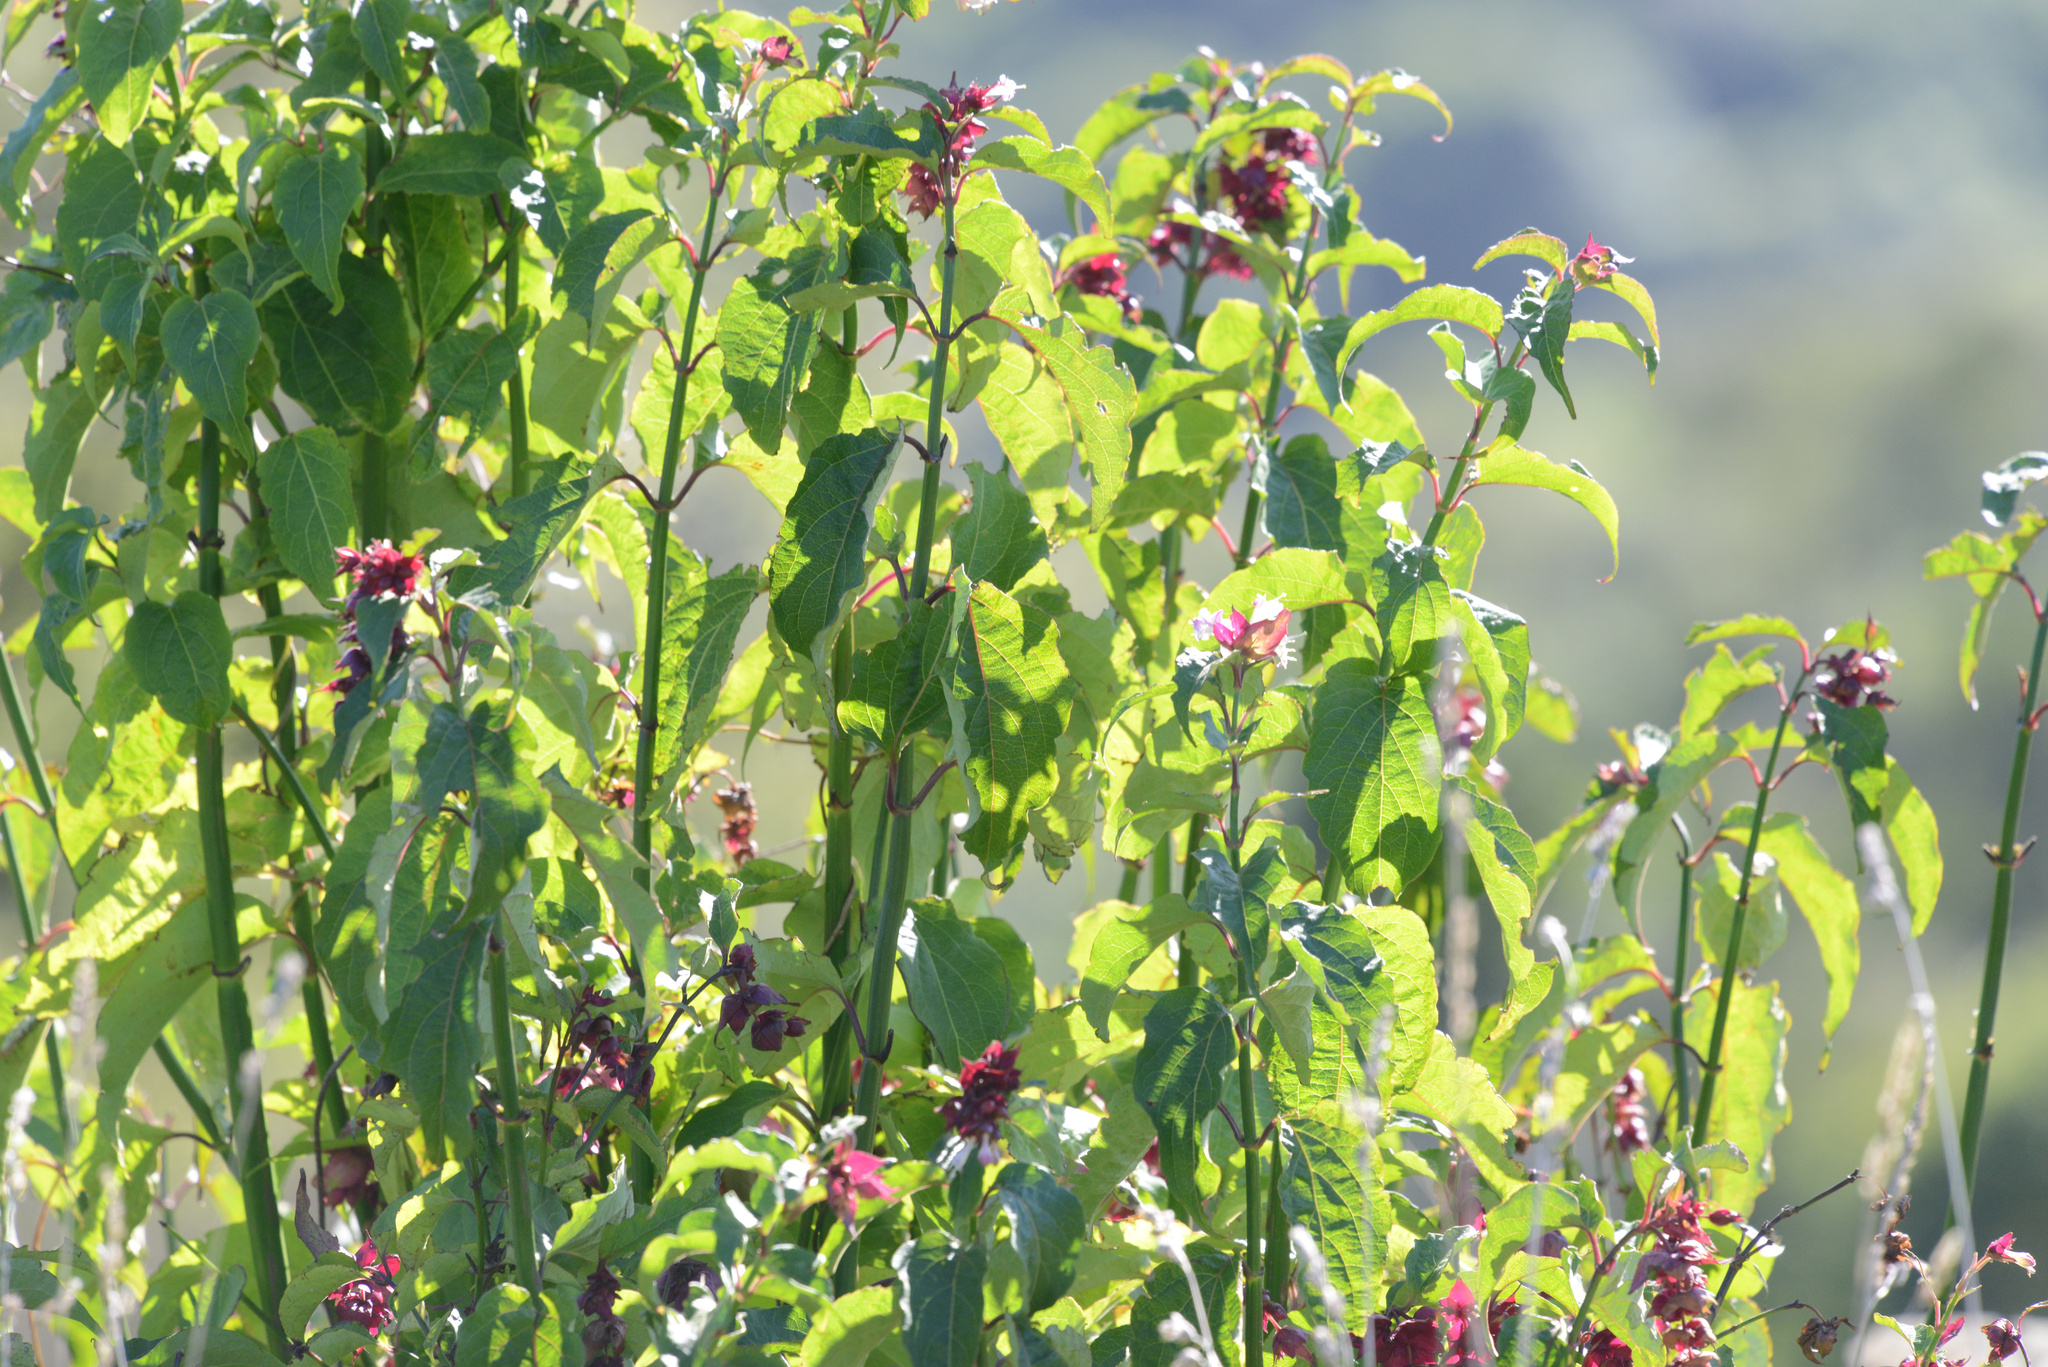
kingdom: Plantae
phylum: Tracheophyta
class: Magnoliopsida
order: Dipsacales
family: Caprifoliaceae
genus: Leycesteria
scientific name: Leycesteria formosa
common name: Himalayan honeysuckle
